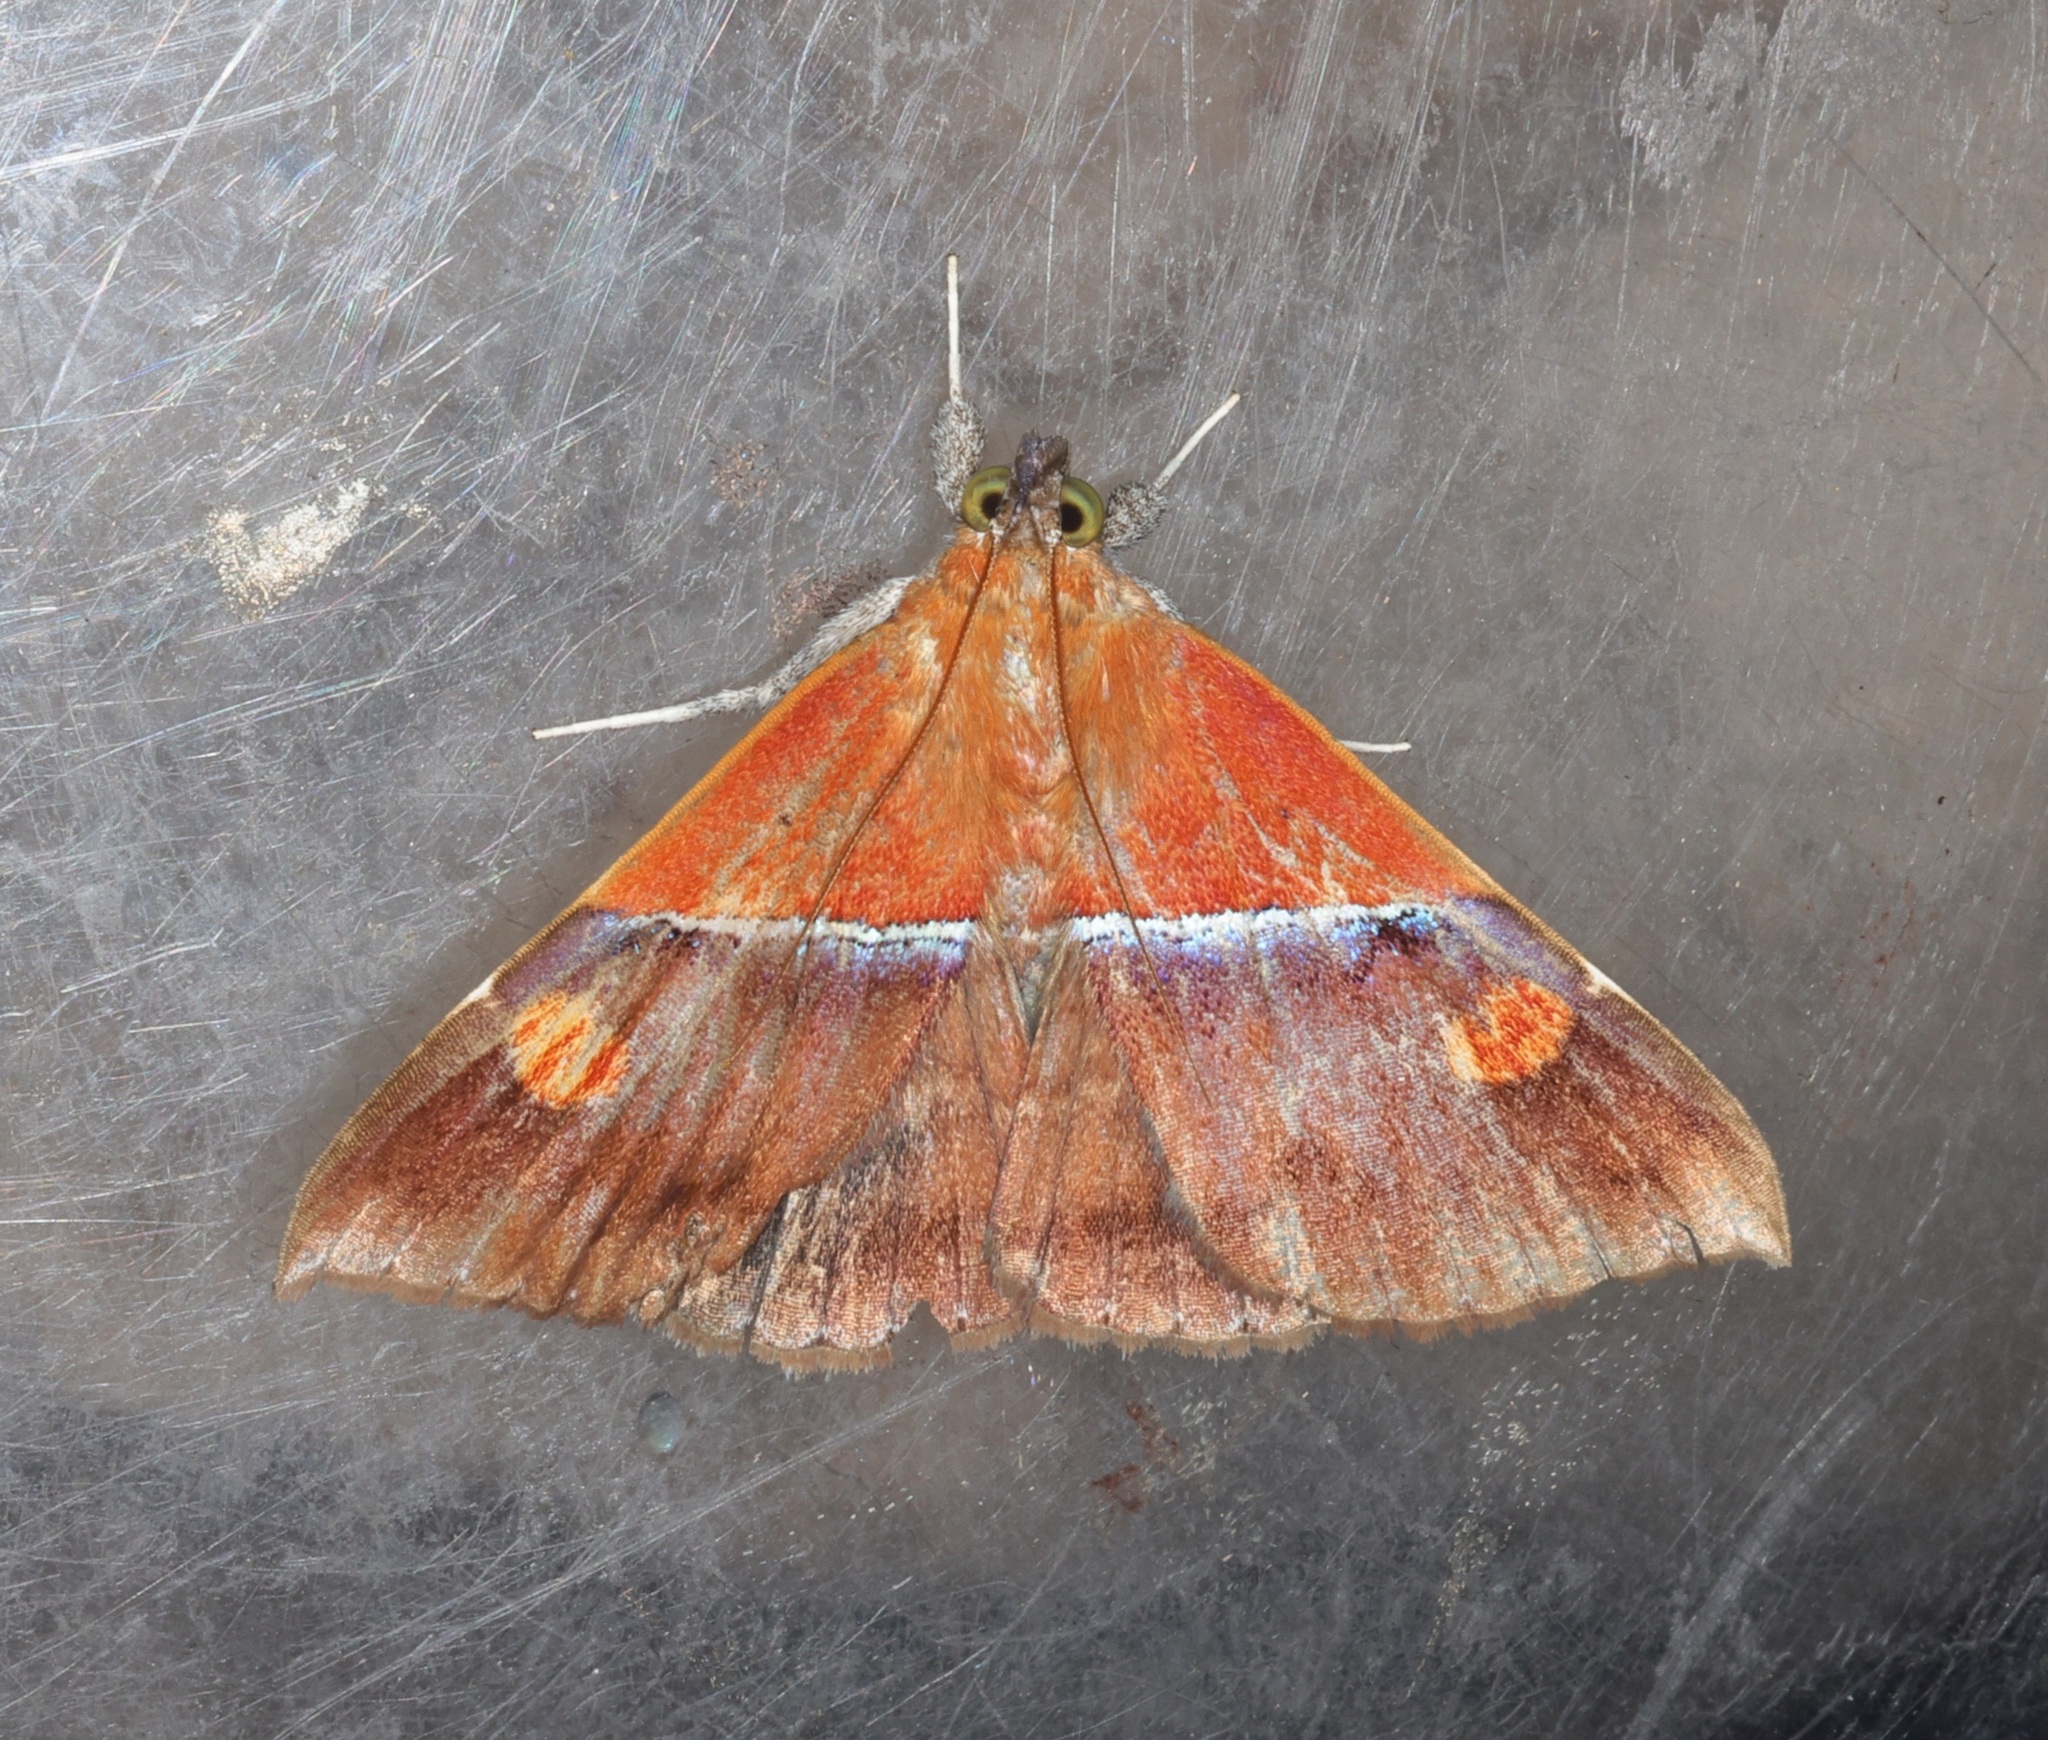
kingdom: Animalia
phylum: Arthropoda
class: Insecta
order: Lepidoptera
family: Erebidae
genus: Sympis
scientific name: Sympis rufibasis
